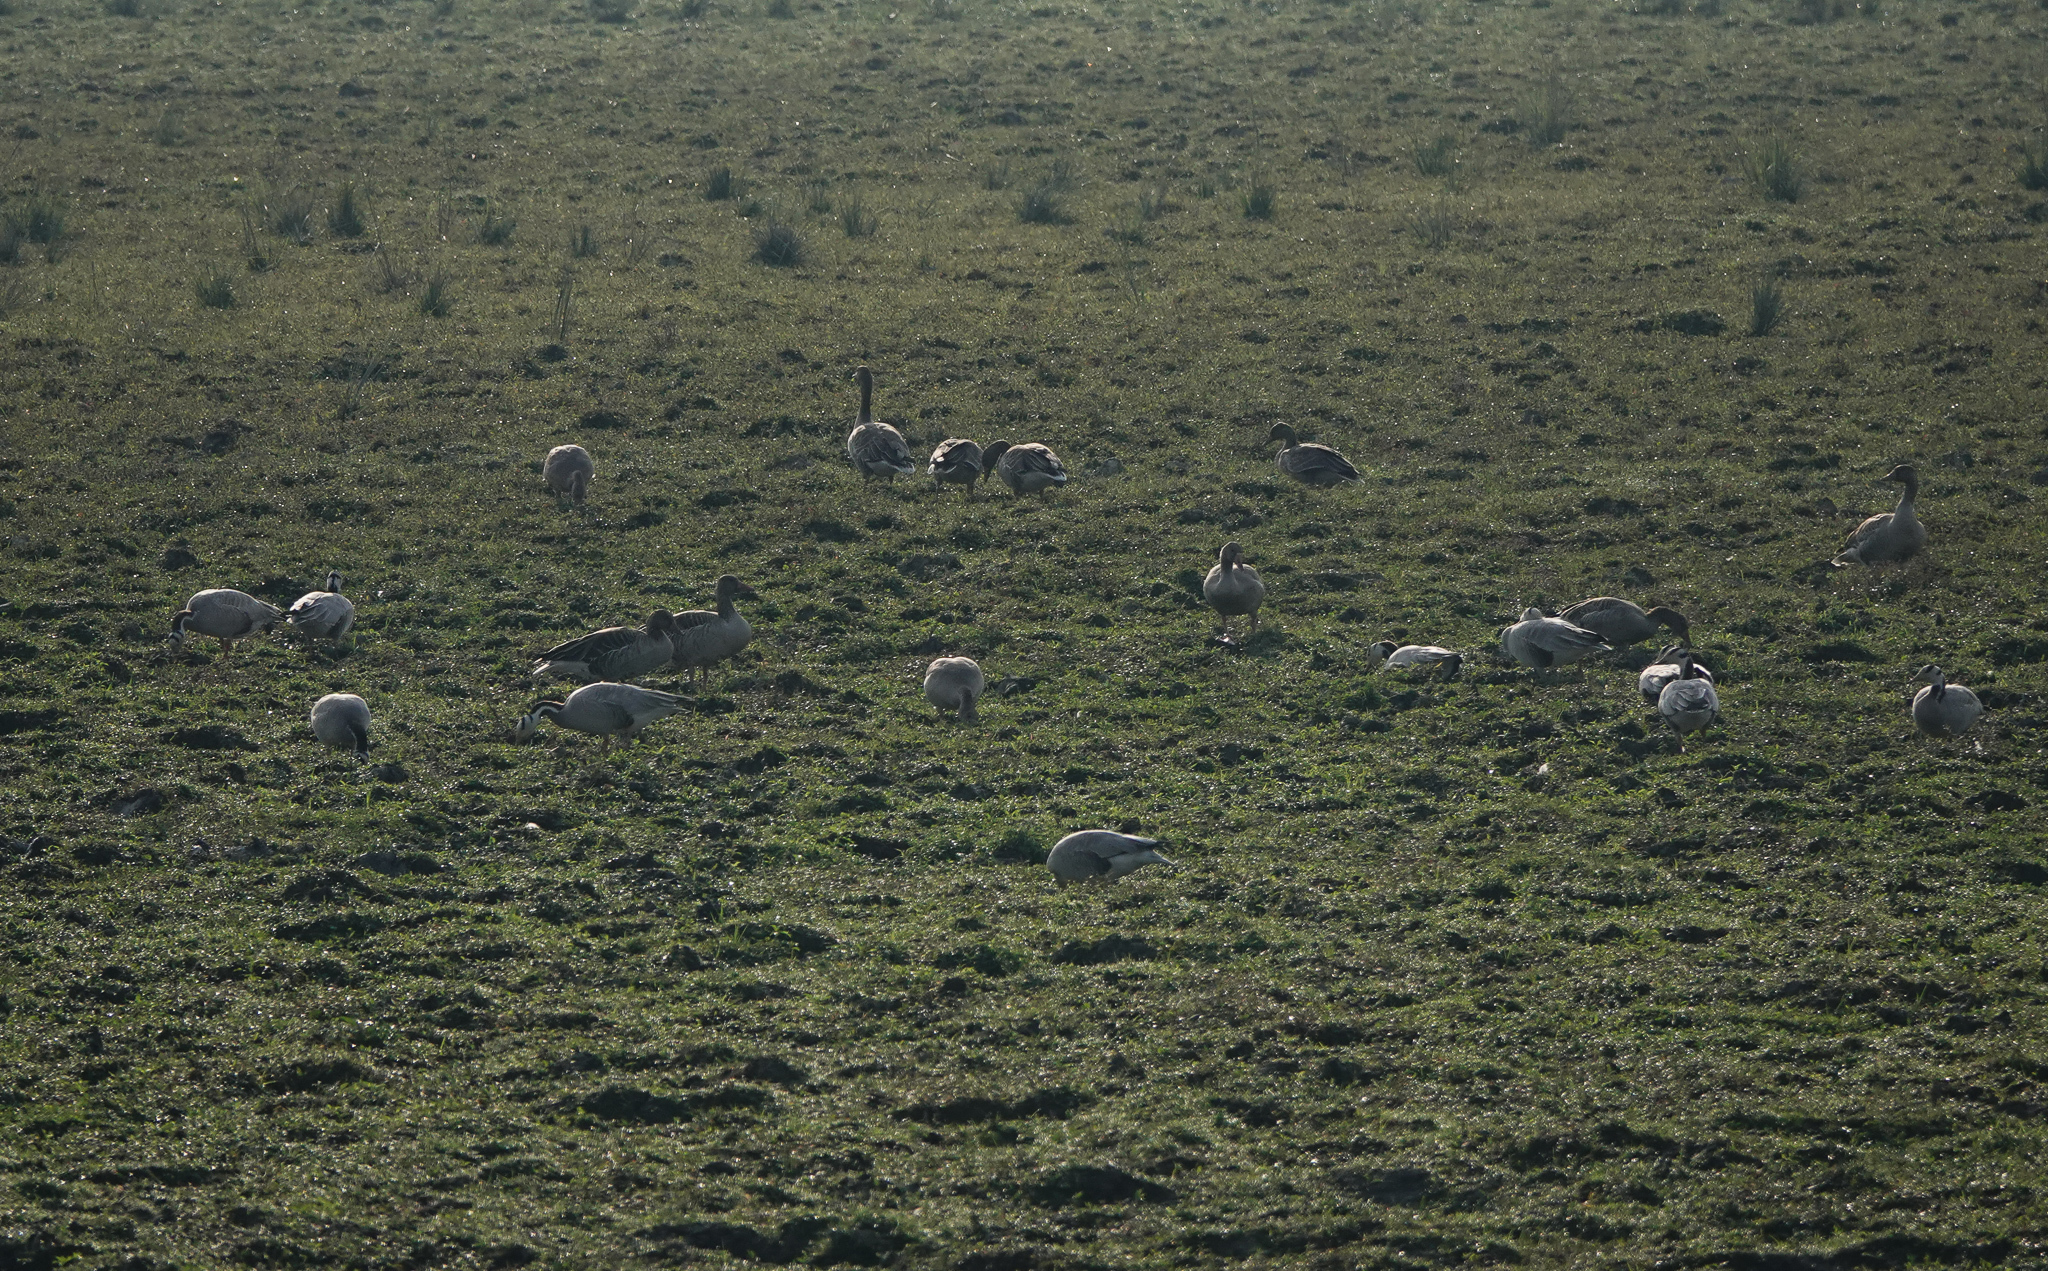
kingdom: Animalia
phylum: Chordata
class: Aves
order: Anseriformes
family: Anatidae
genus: Anser
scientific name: Anser indicus
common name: Bar-headed goose
